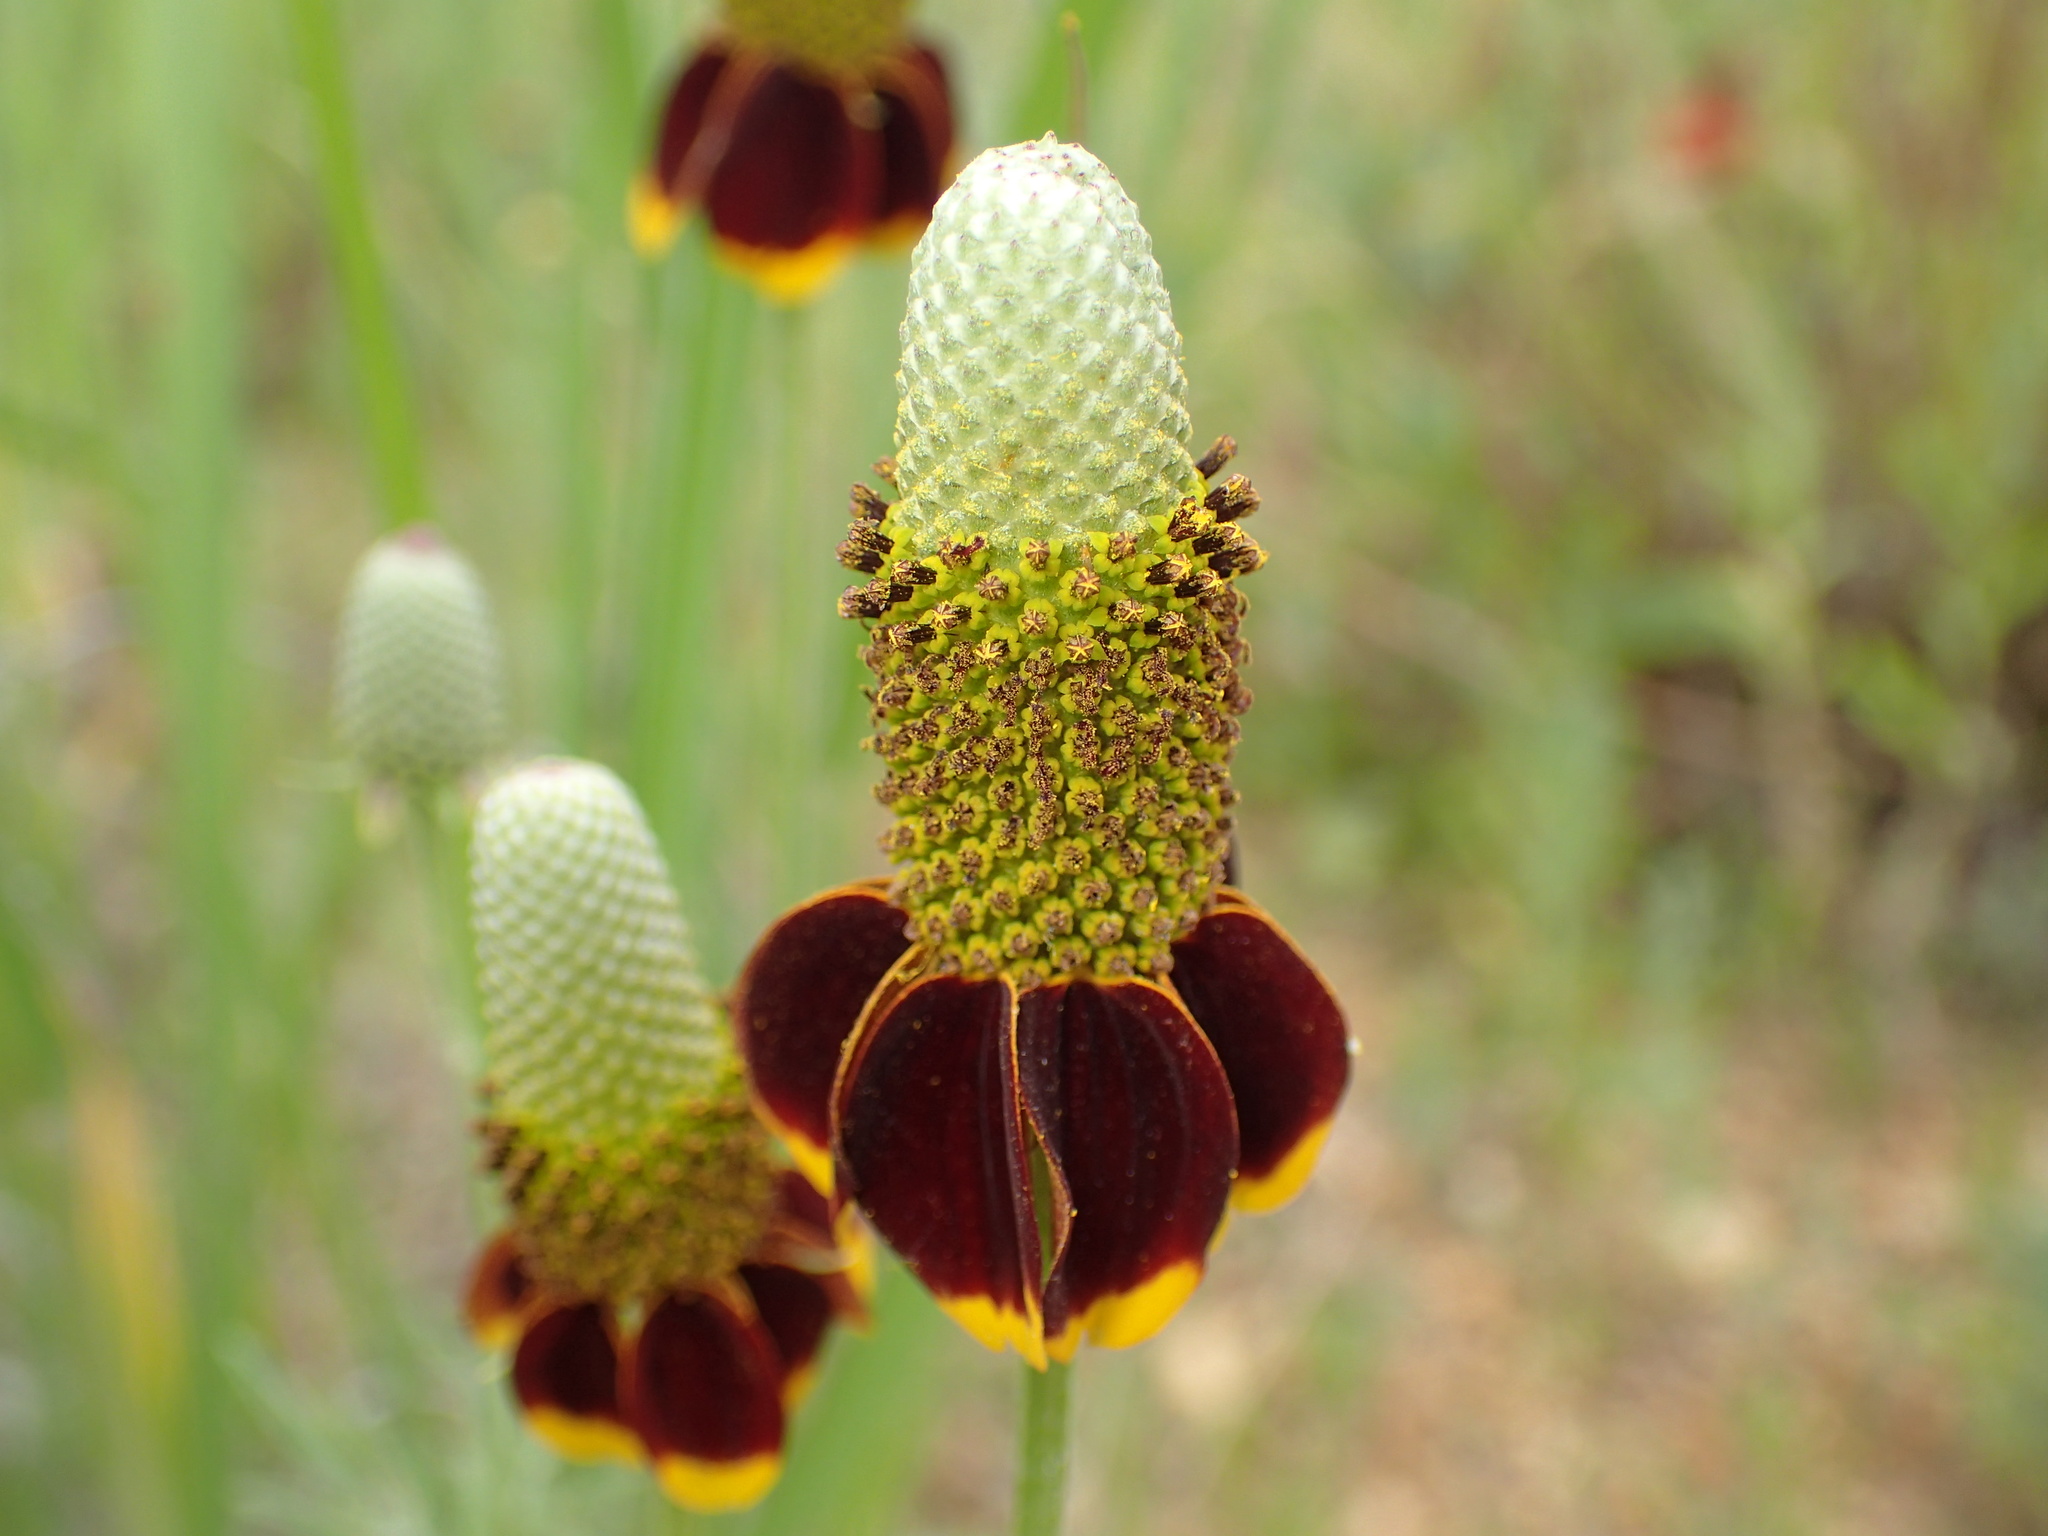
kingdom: Plantae
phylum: Tracheophyta
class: Magnoliopsida
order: Asterales
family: Asteraceae
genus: Ratibida
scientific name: Ratibida columnifera
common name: Prairie coneflower
